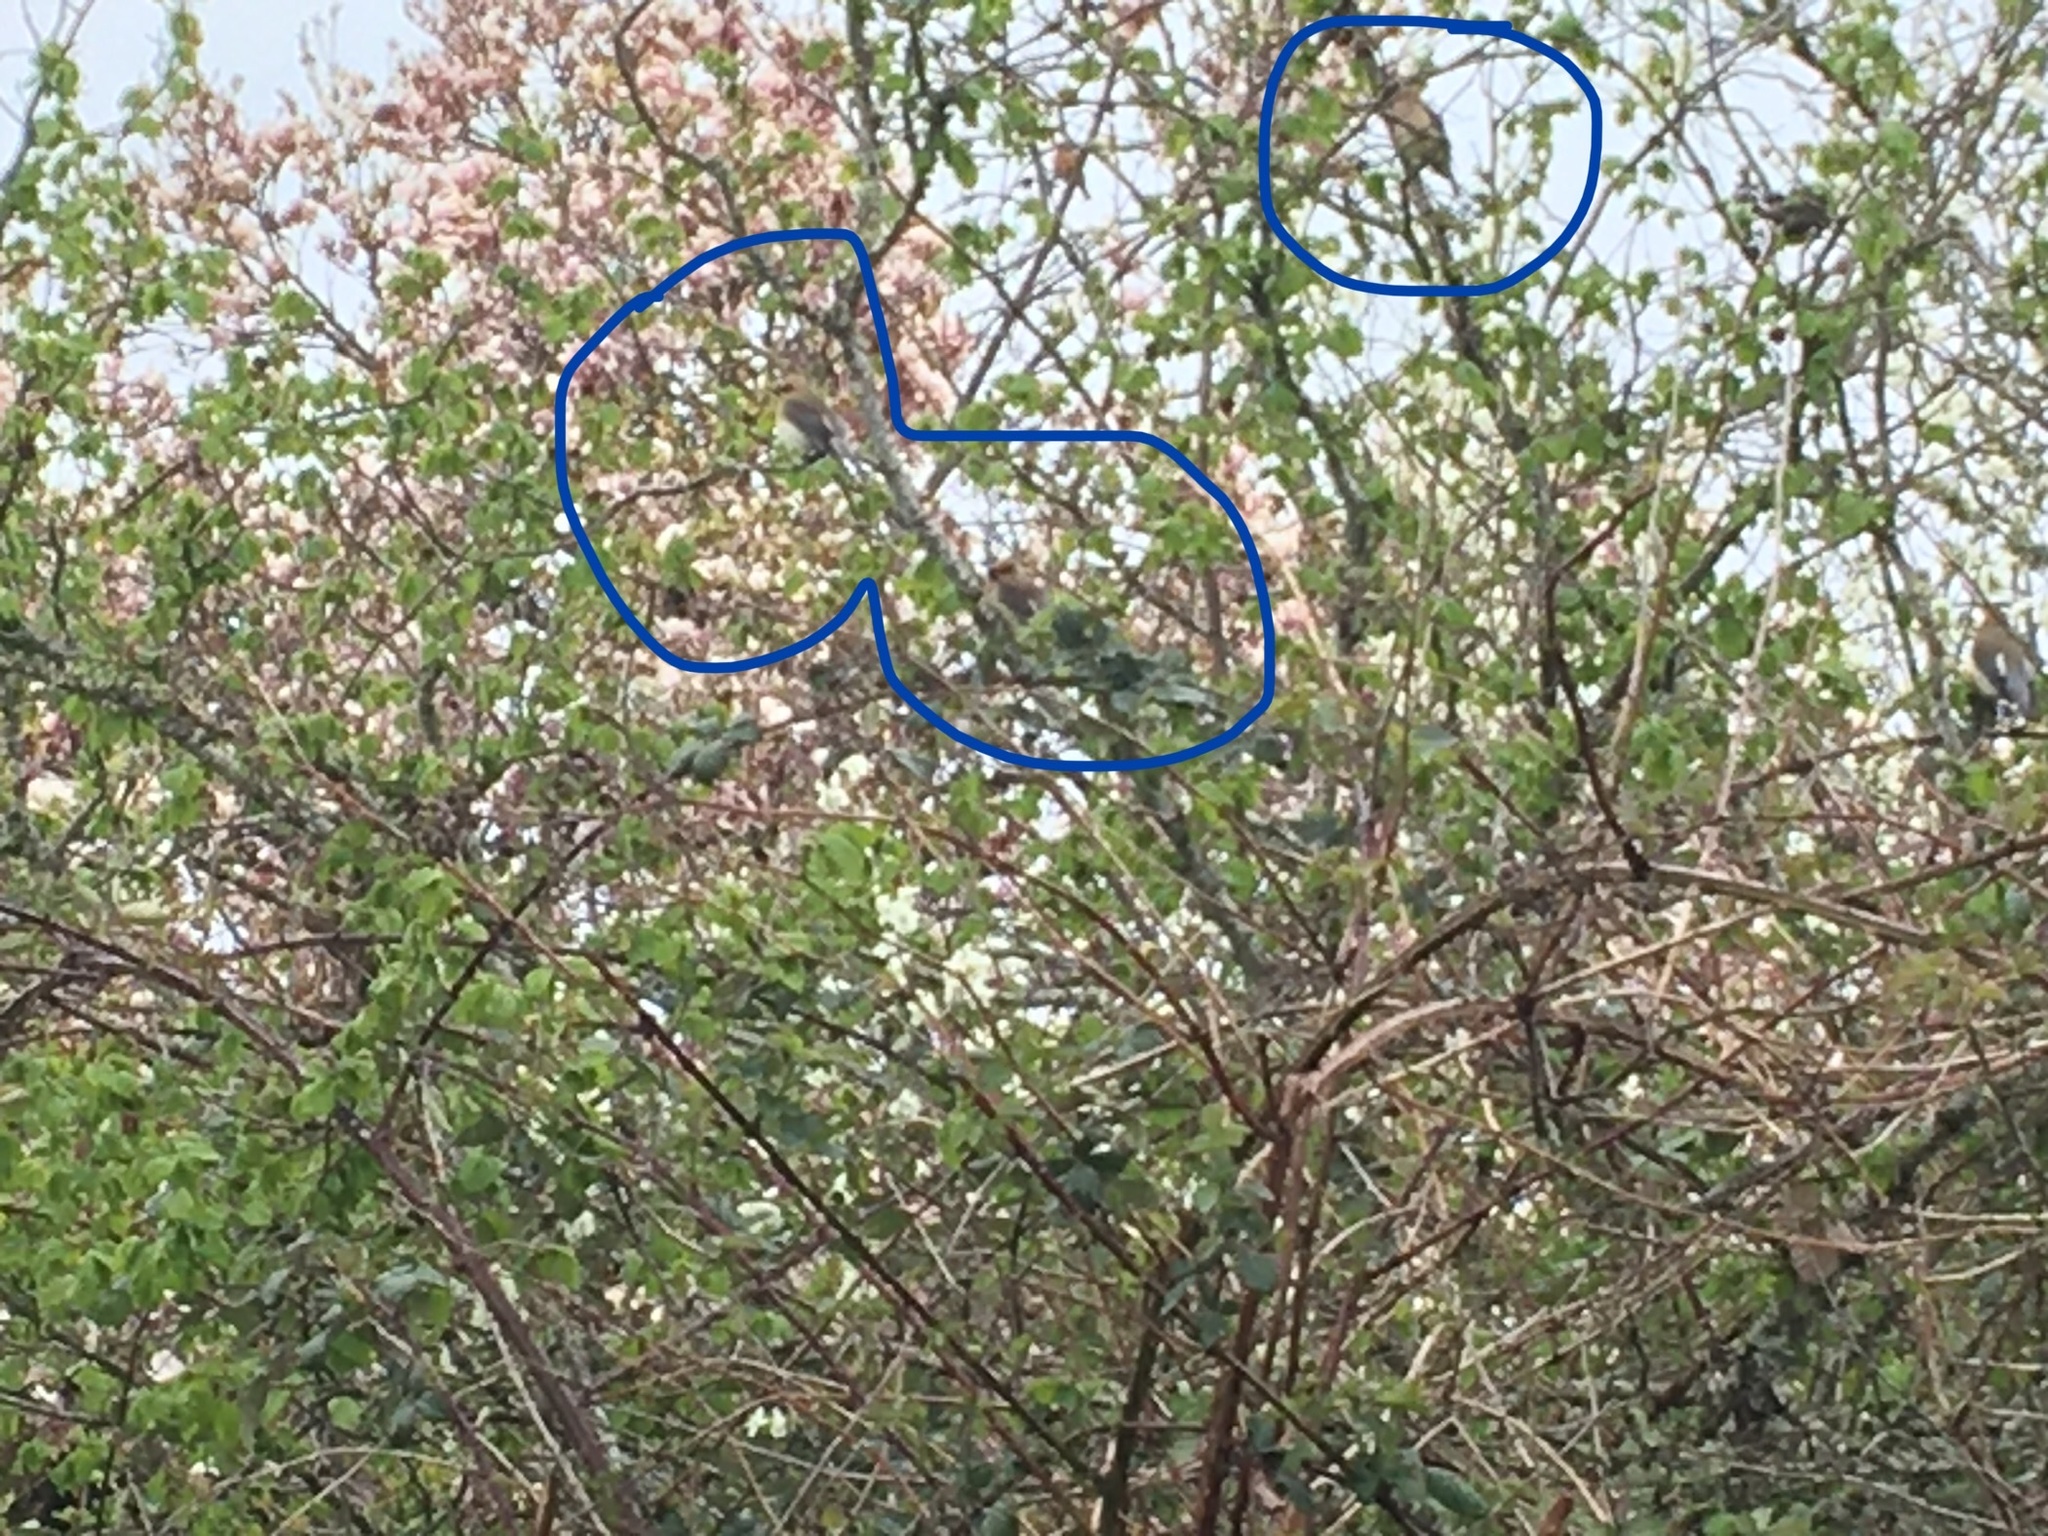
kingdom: Animalia
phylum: Chordata
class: Aves
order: Passeriformes
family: Bombycillidae
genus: Bombycilla
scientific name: Bombycilla cedrorum
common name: Cedar waxwing
